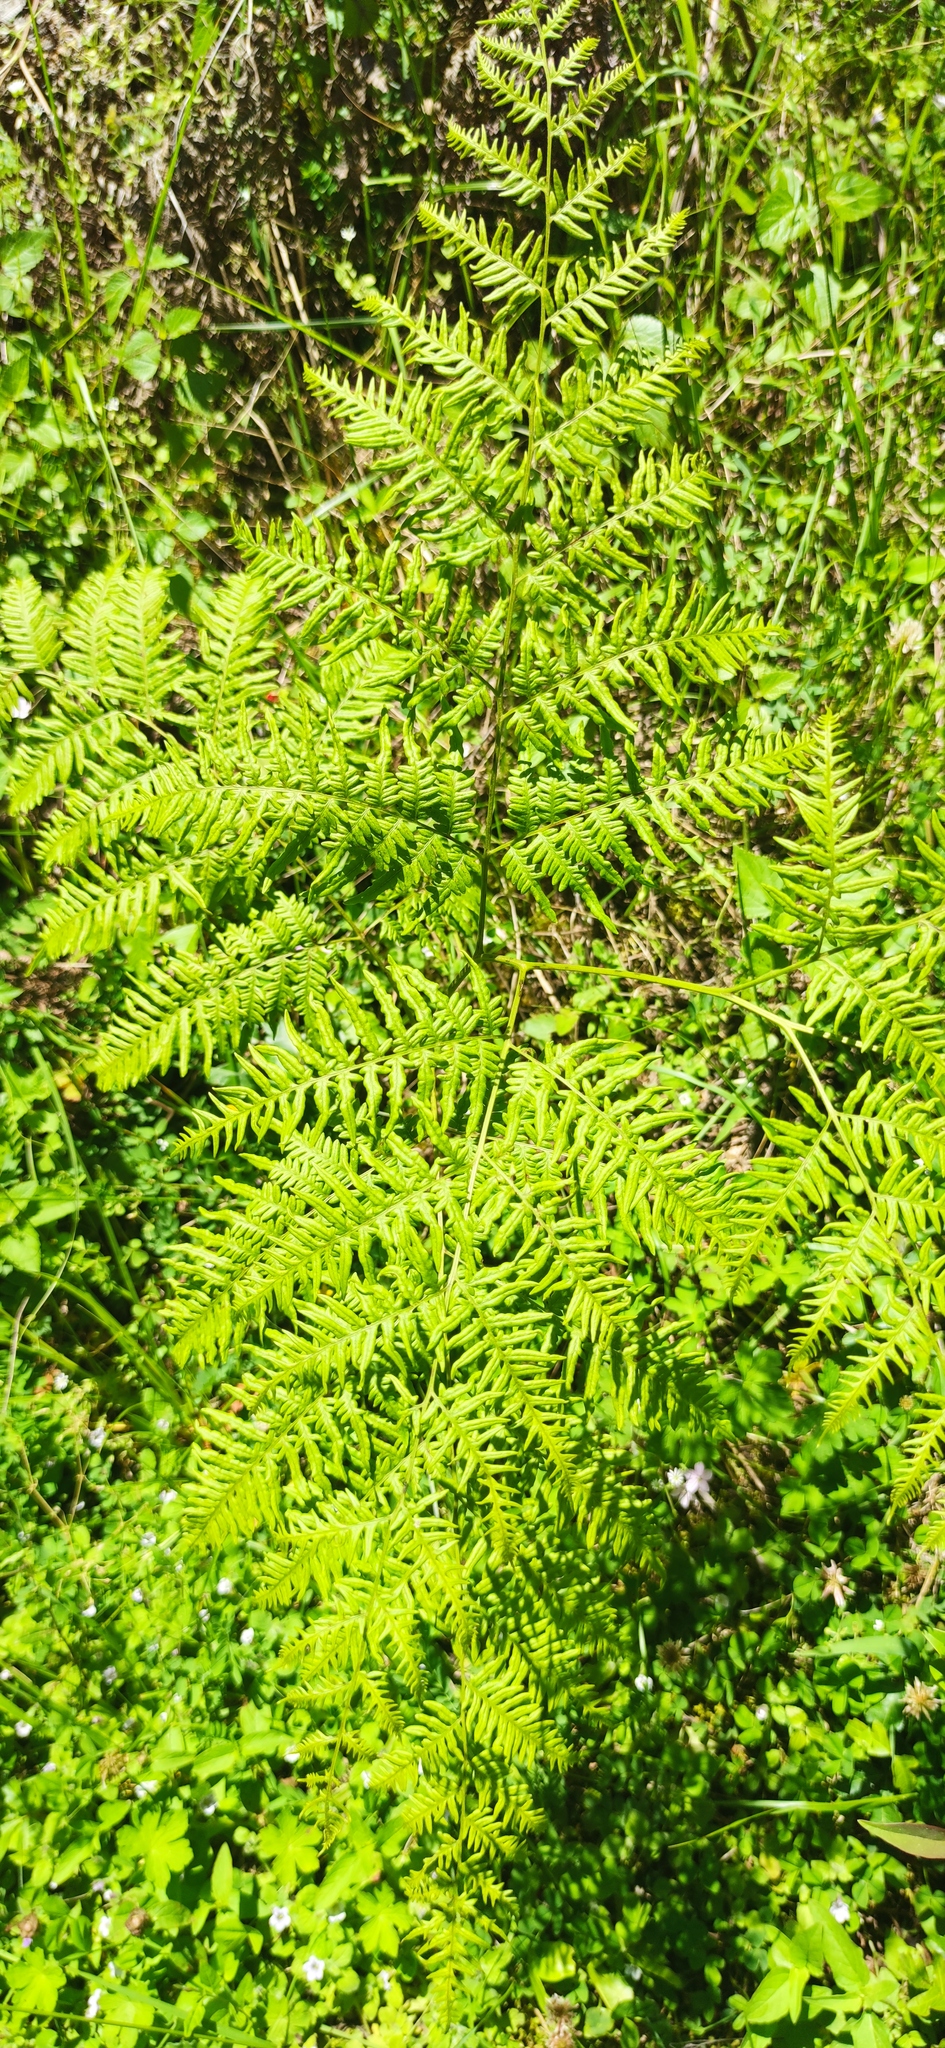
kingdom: Plantae
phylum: Tracheophyta
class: Polypodiopsida
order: Polypodiales
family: Dennstaedtiaceae
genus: Pteridium
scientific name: Pteridium caudatum
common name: Southern bracken fern
